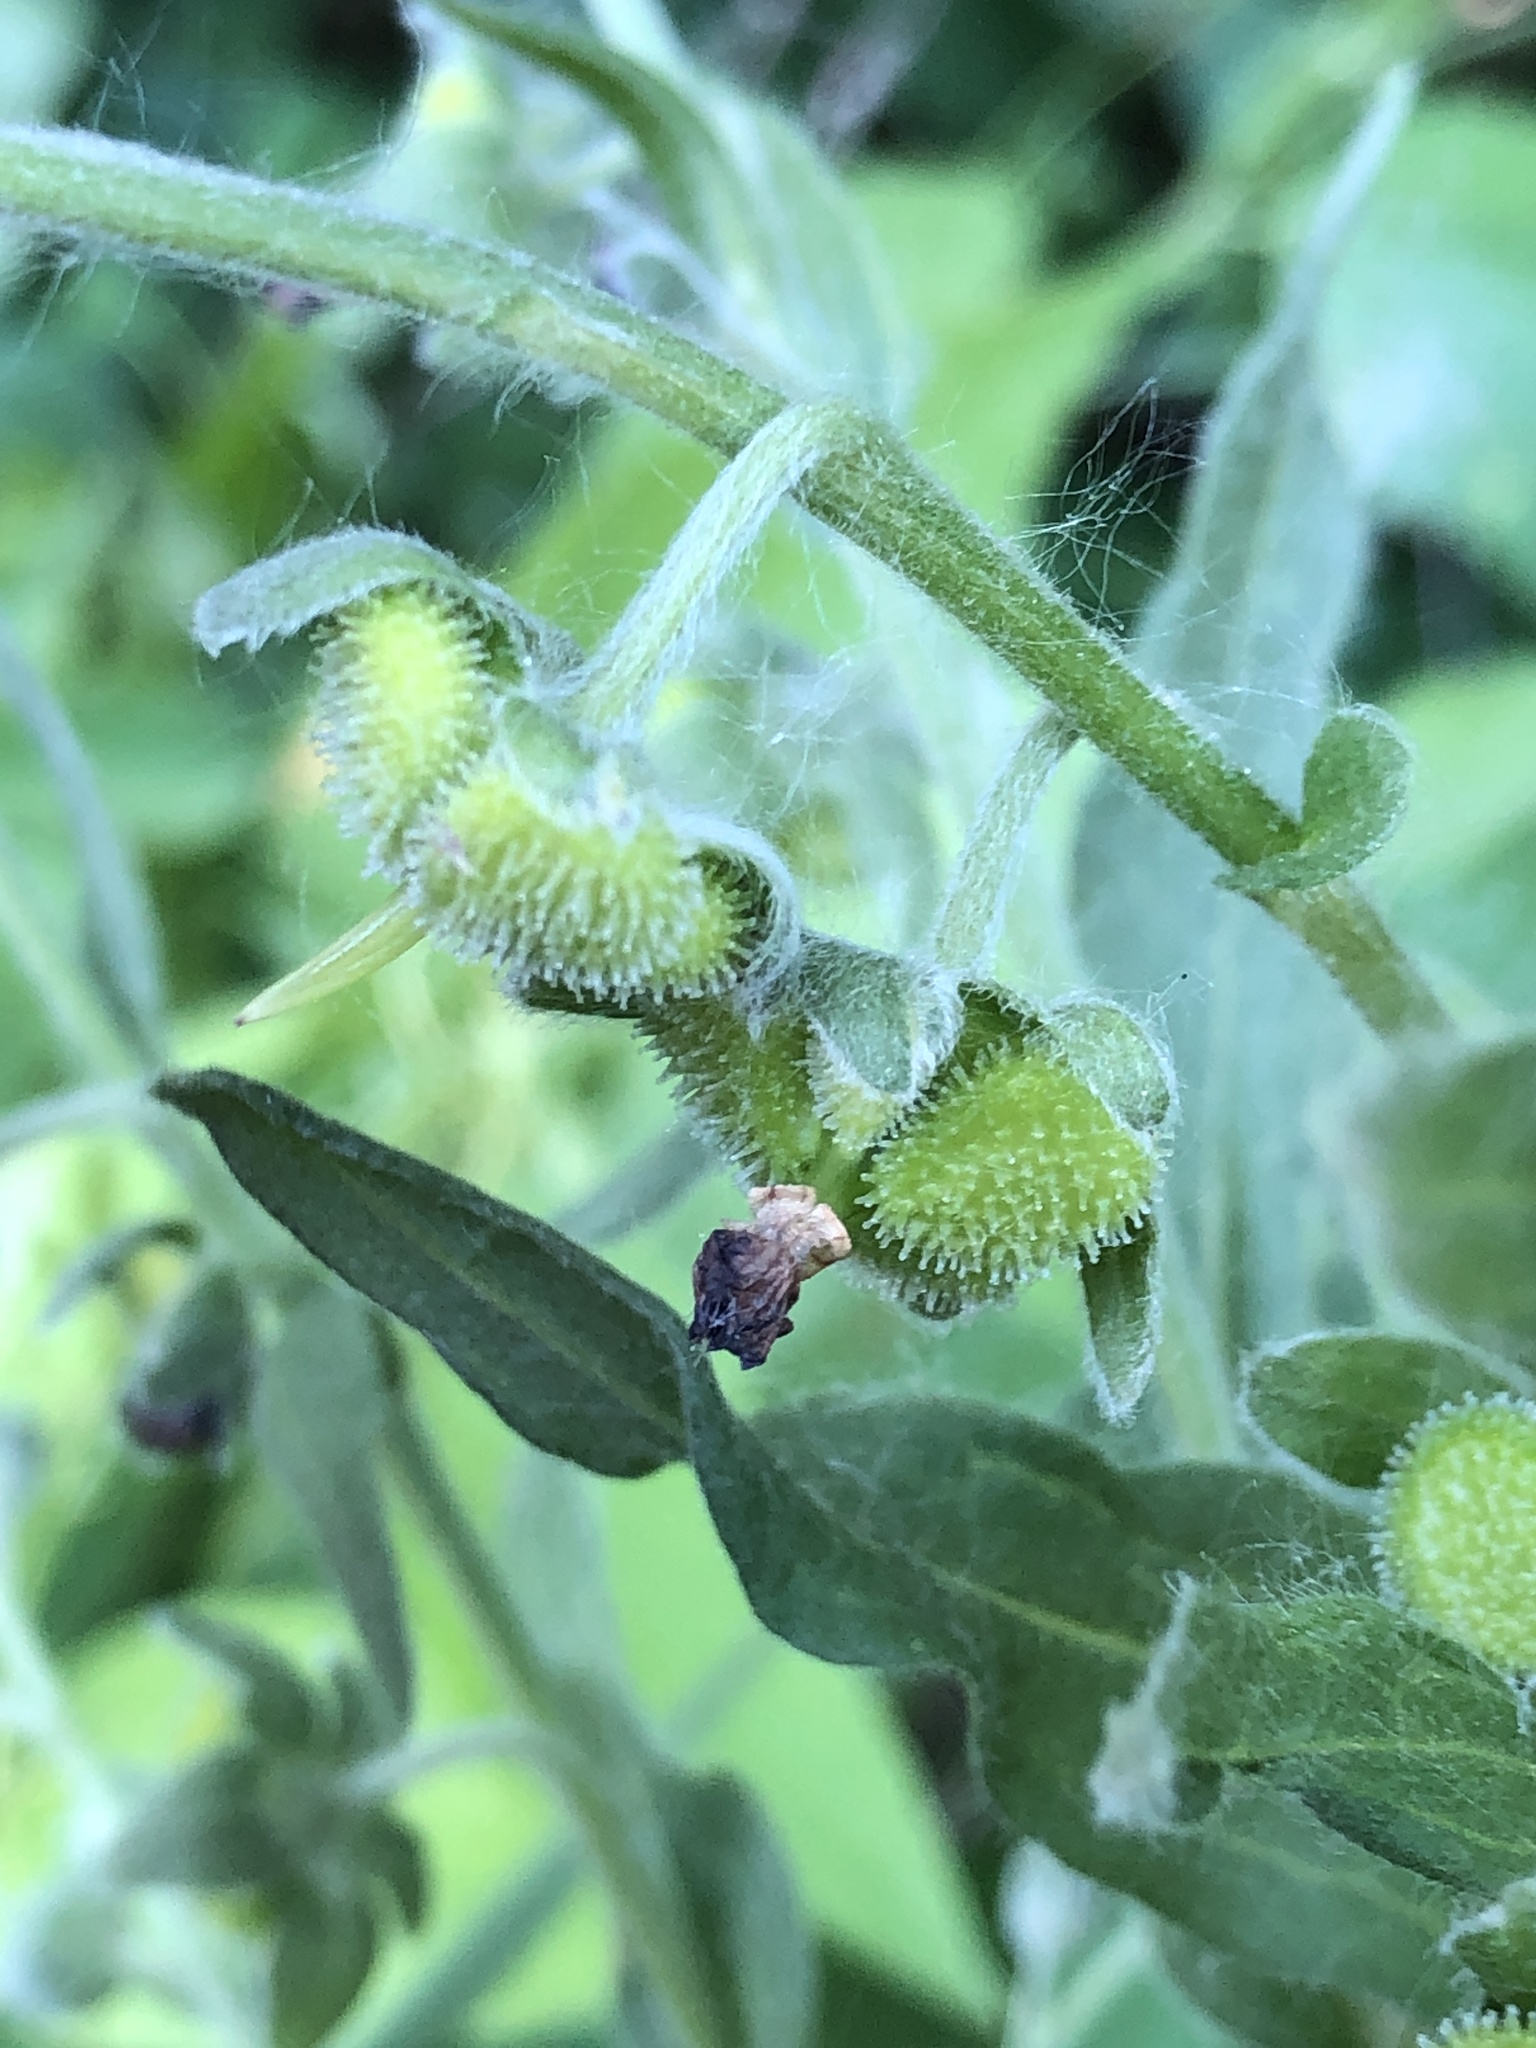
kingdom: Plantae
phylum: Tracheophyta
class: Magnoliopsida
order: Boraginales
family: Boraginaceae
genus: Cynoglossum
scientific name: Cynoglossum officinale
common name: Hound's-tongue
